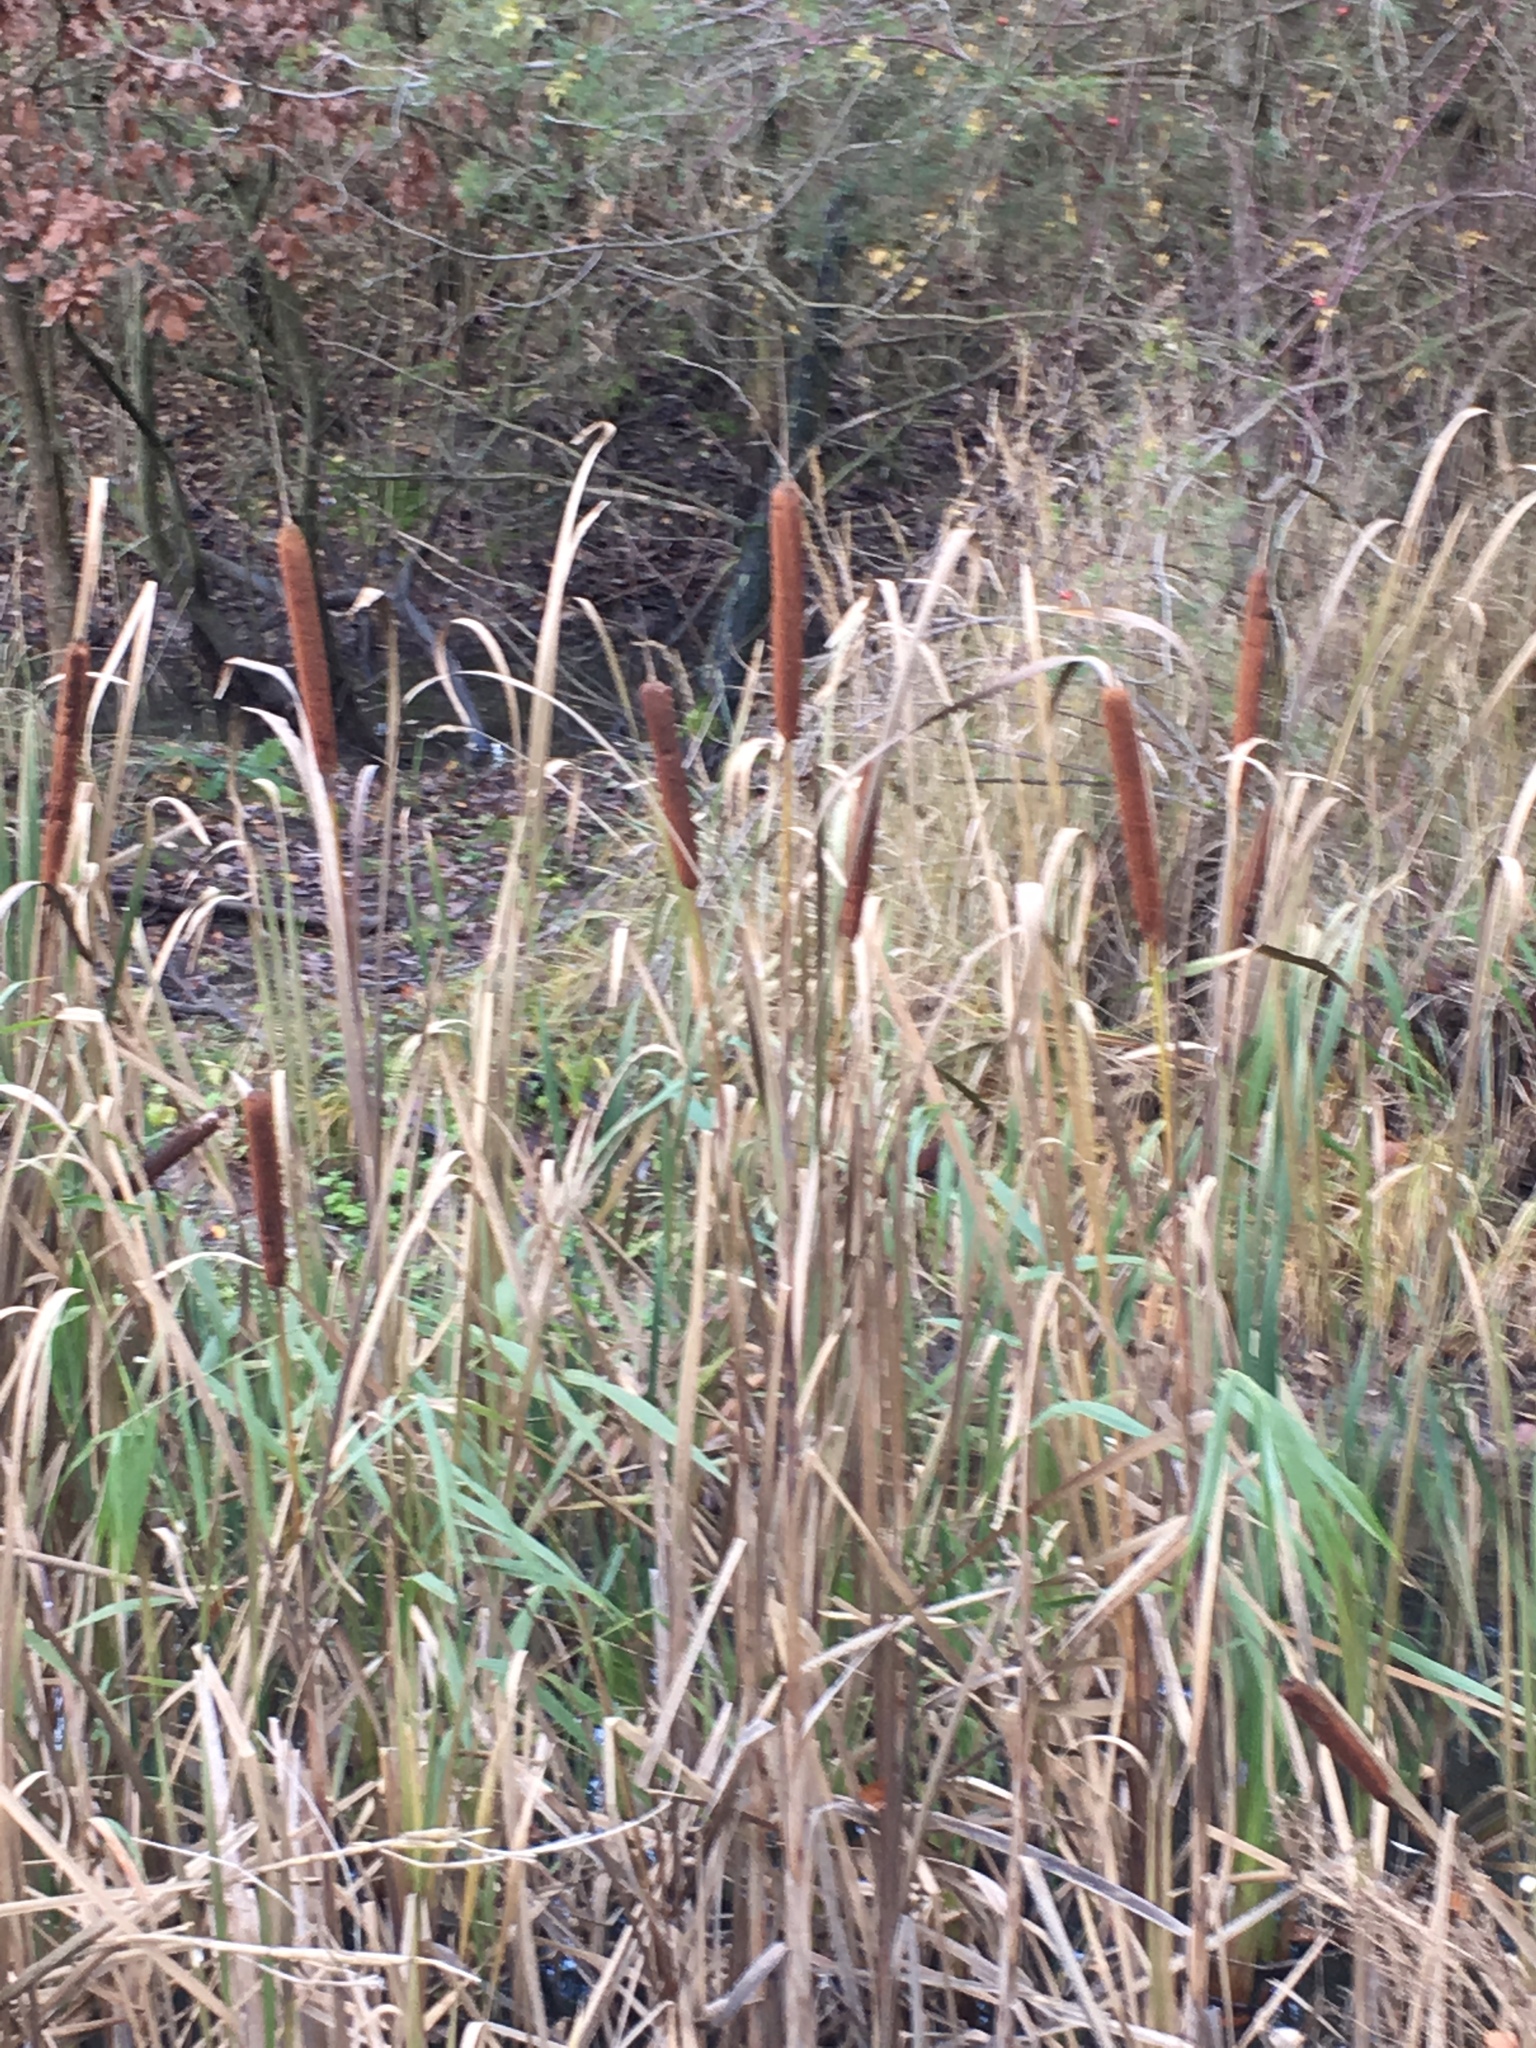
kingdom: Plantae
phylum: Tracheophyta
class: Liliopsida
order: Poales
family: Typhaceae
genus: Typha
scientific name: Typha latifolia
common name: Broadleaf cattail
